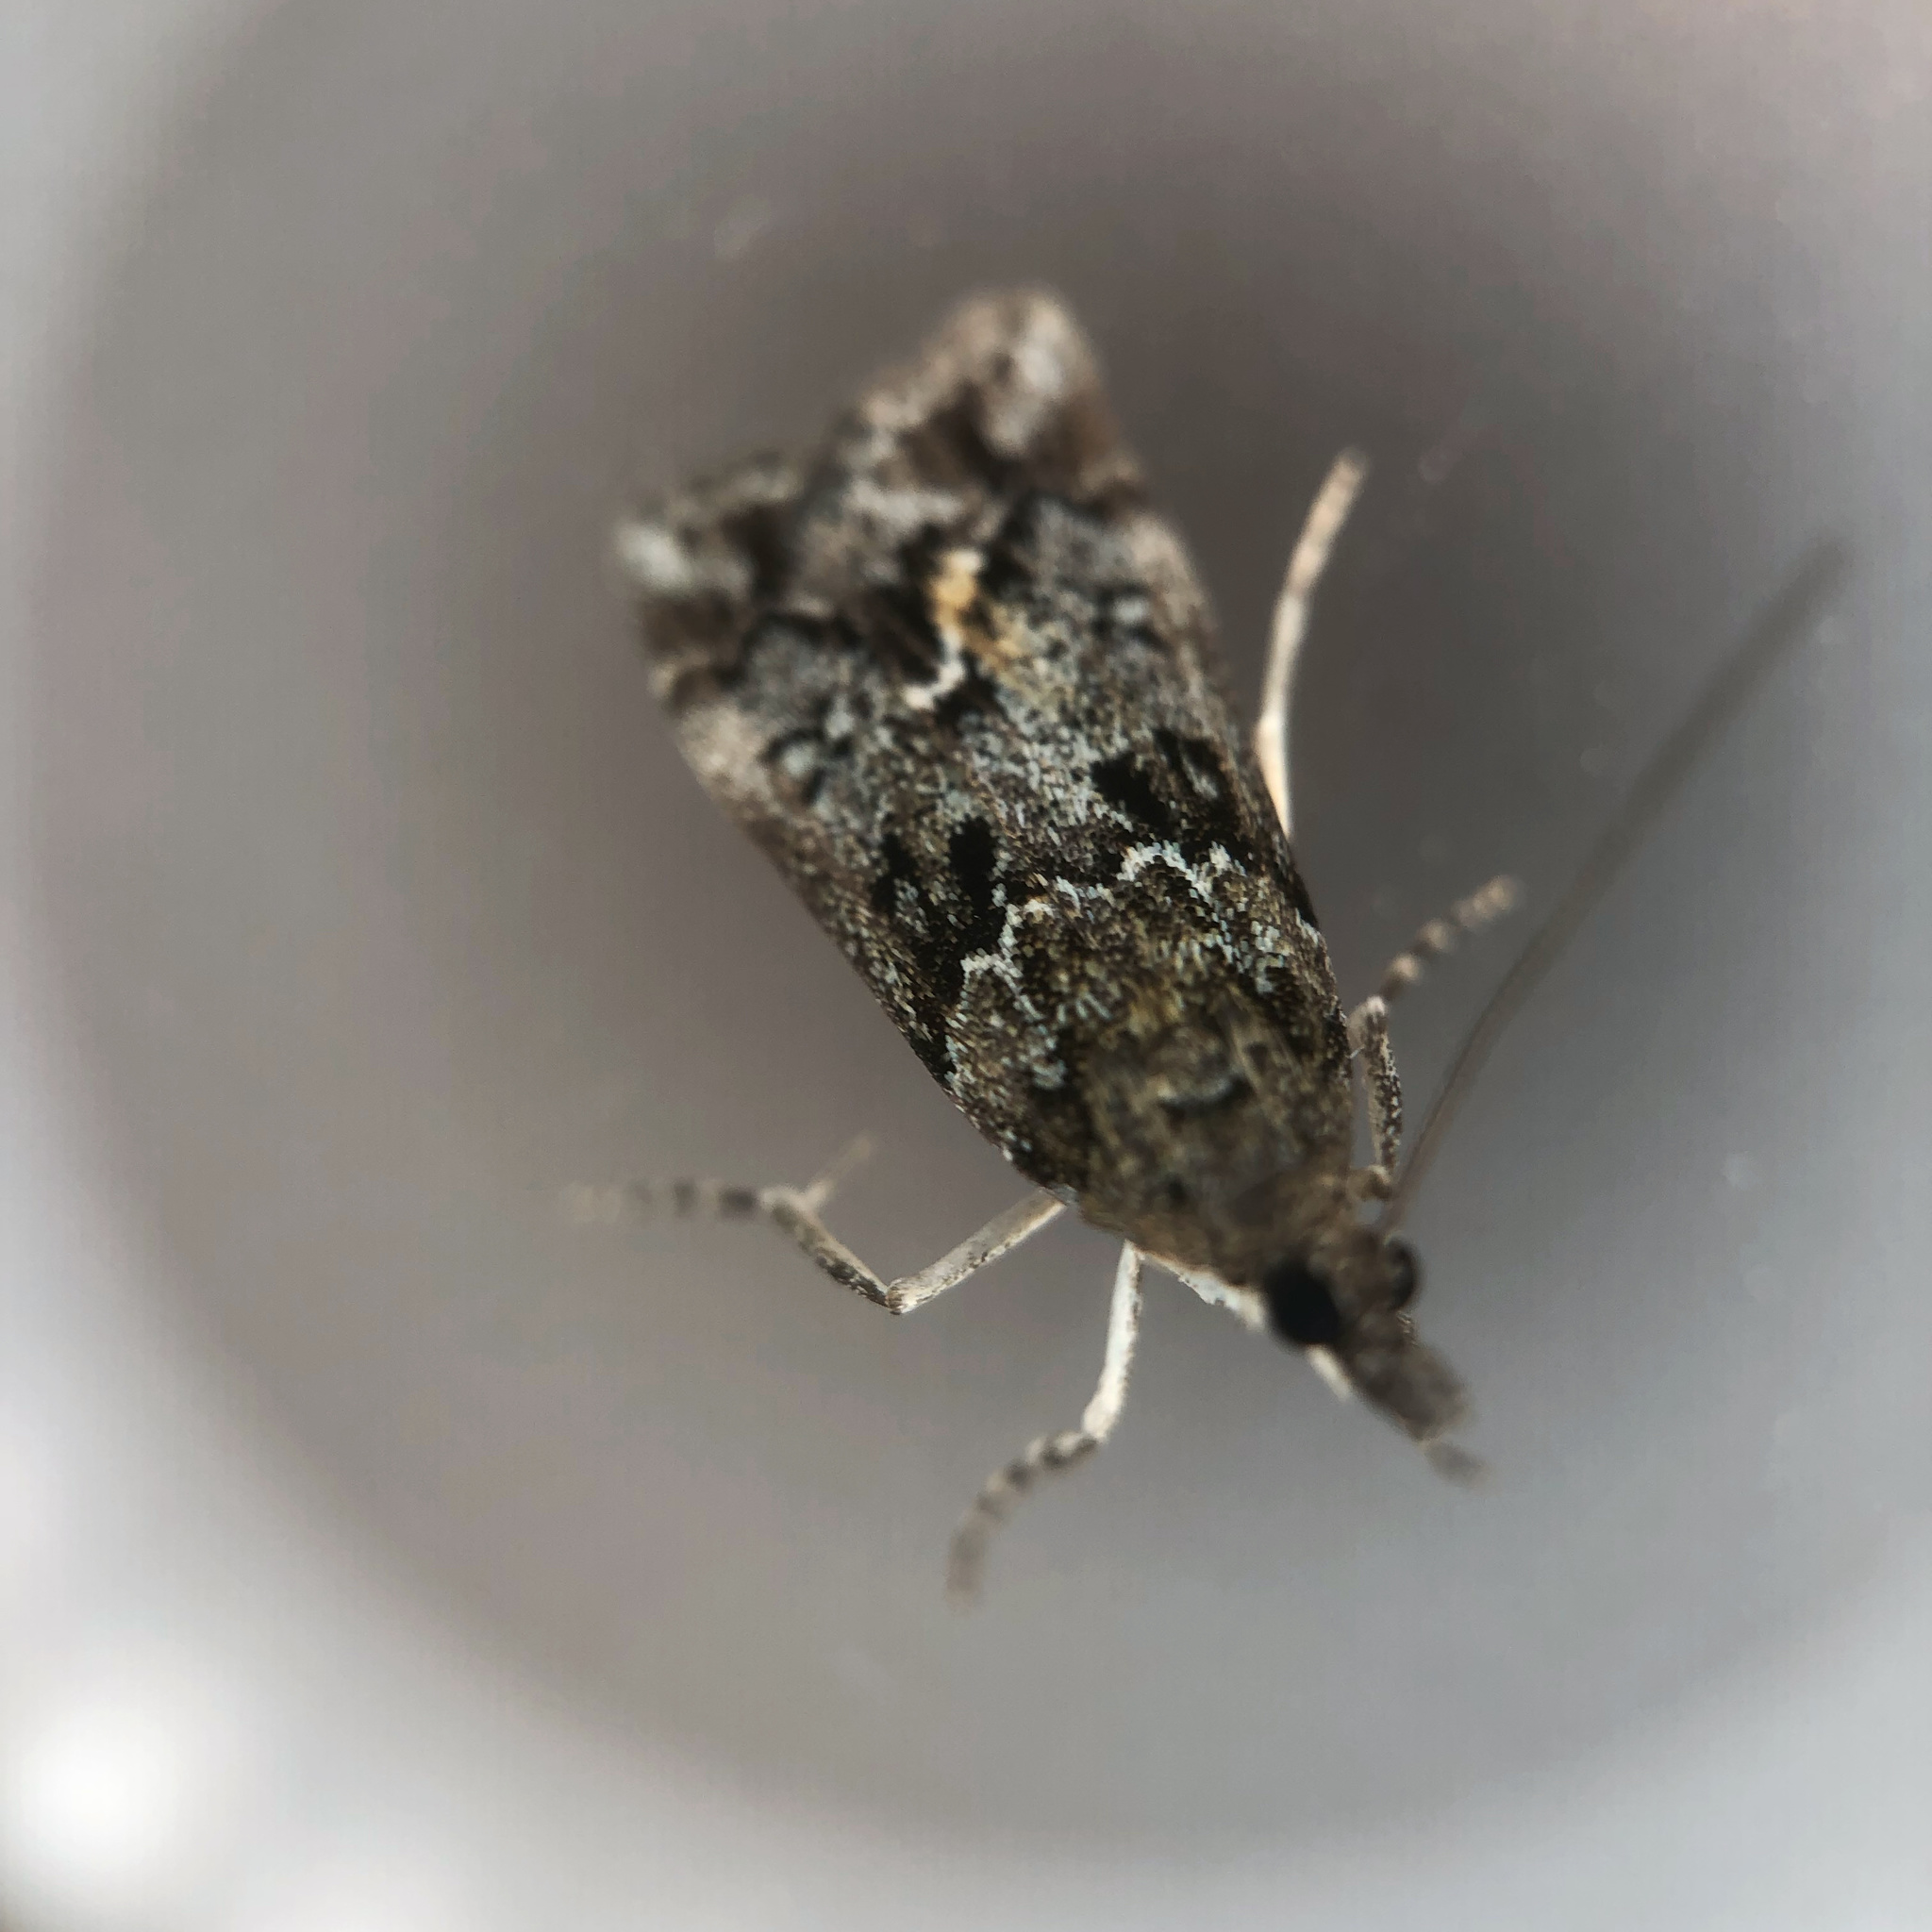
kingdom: Animalia
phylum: Arthropoda
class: Insecta
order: Lepidoptera
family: Crambidae
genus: Eudonia
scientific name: Eudonia submarginalis
